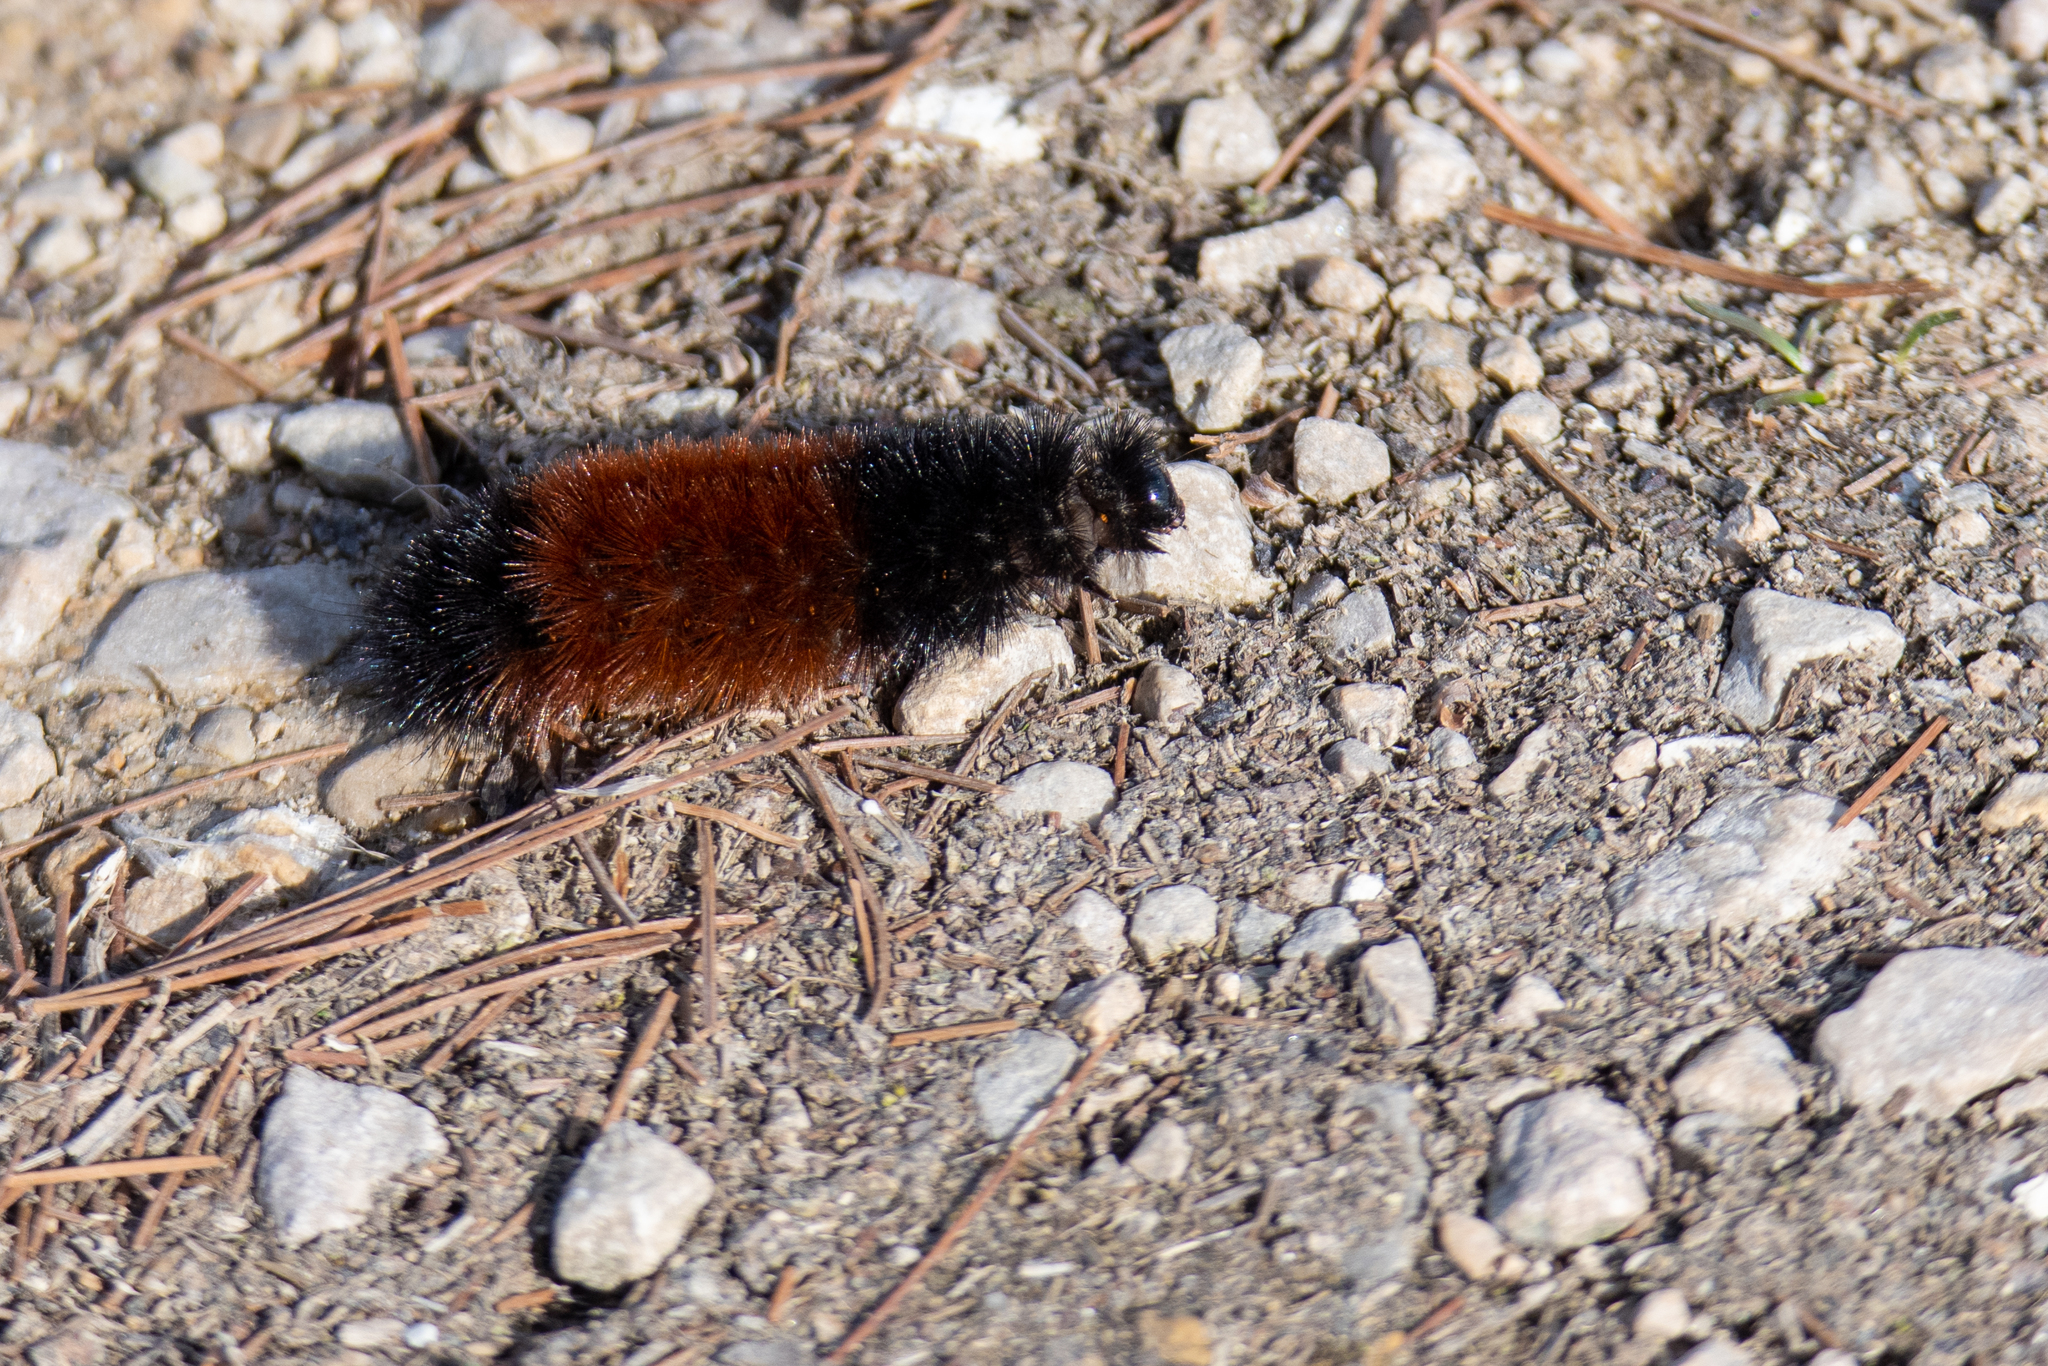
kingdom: Animalia
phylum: Arthropoda
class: Insecta
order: Lepidoptera
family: Erebidae
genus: Pyrrharctia
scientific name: Pyrrharctia isabella
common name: Isabella tiger moth
